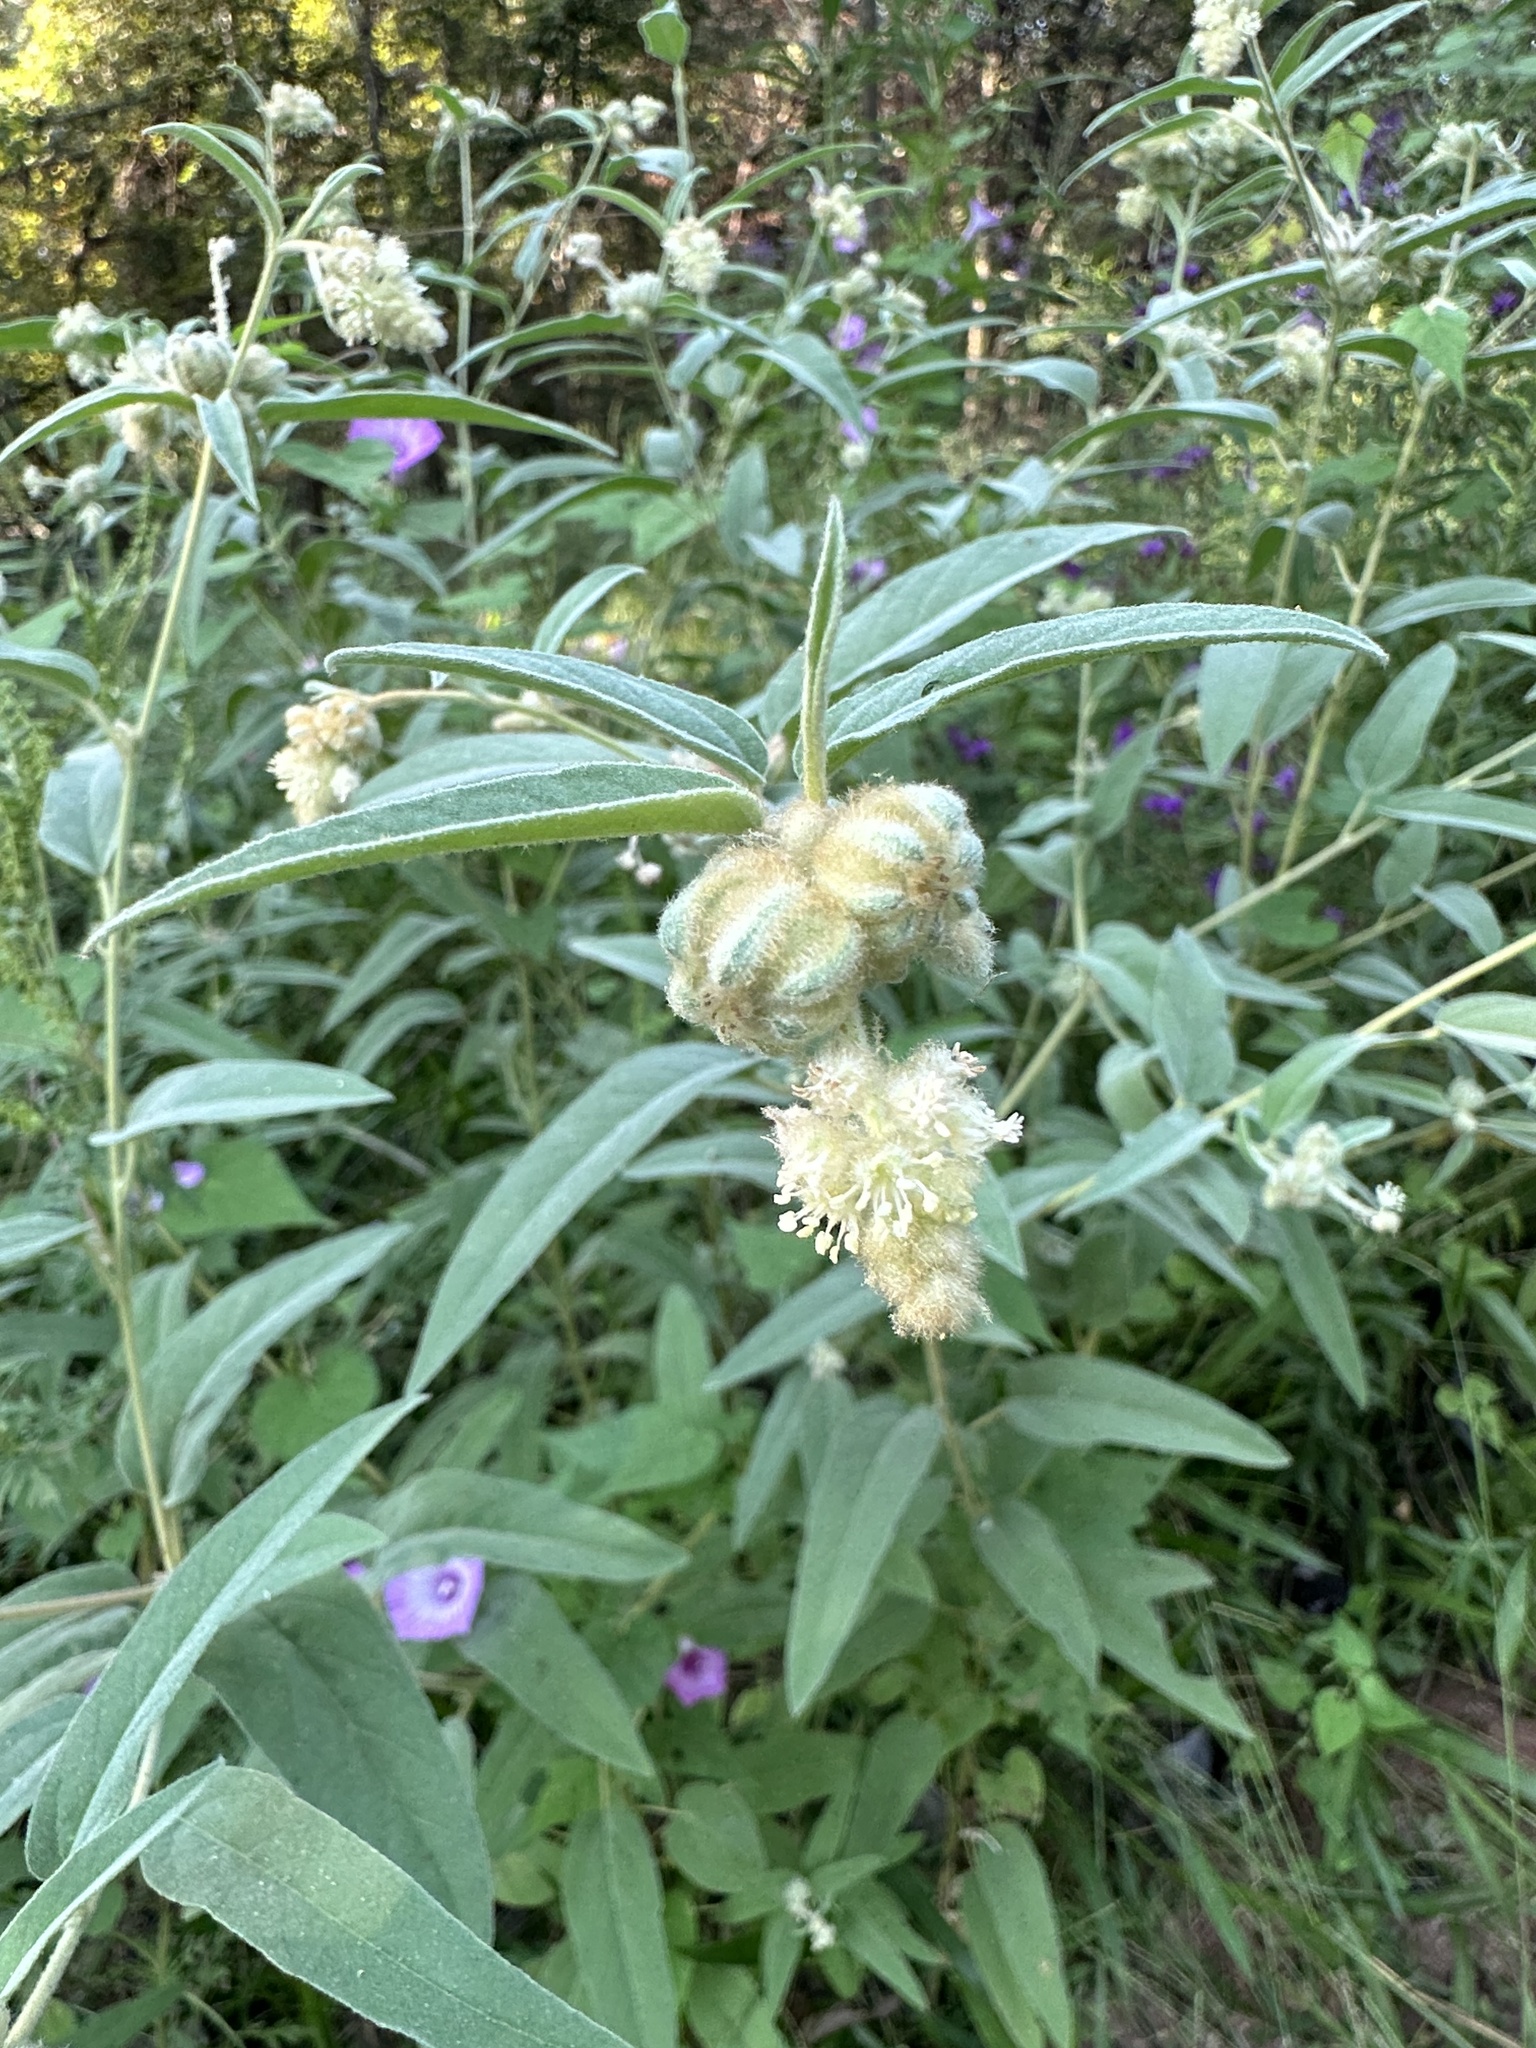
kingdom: Plantae
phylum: Tracheophyta
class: Magnoliopsida
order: Malpighiales
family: Euphorbiaceae
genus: Croton
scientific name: Croton lindheimeri
